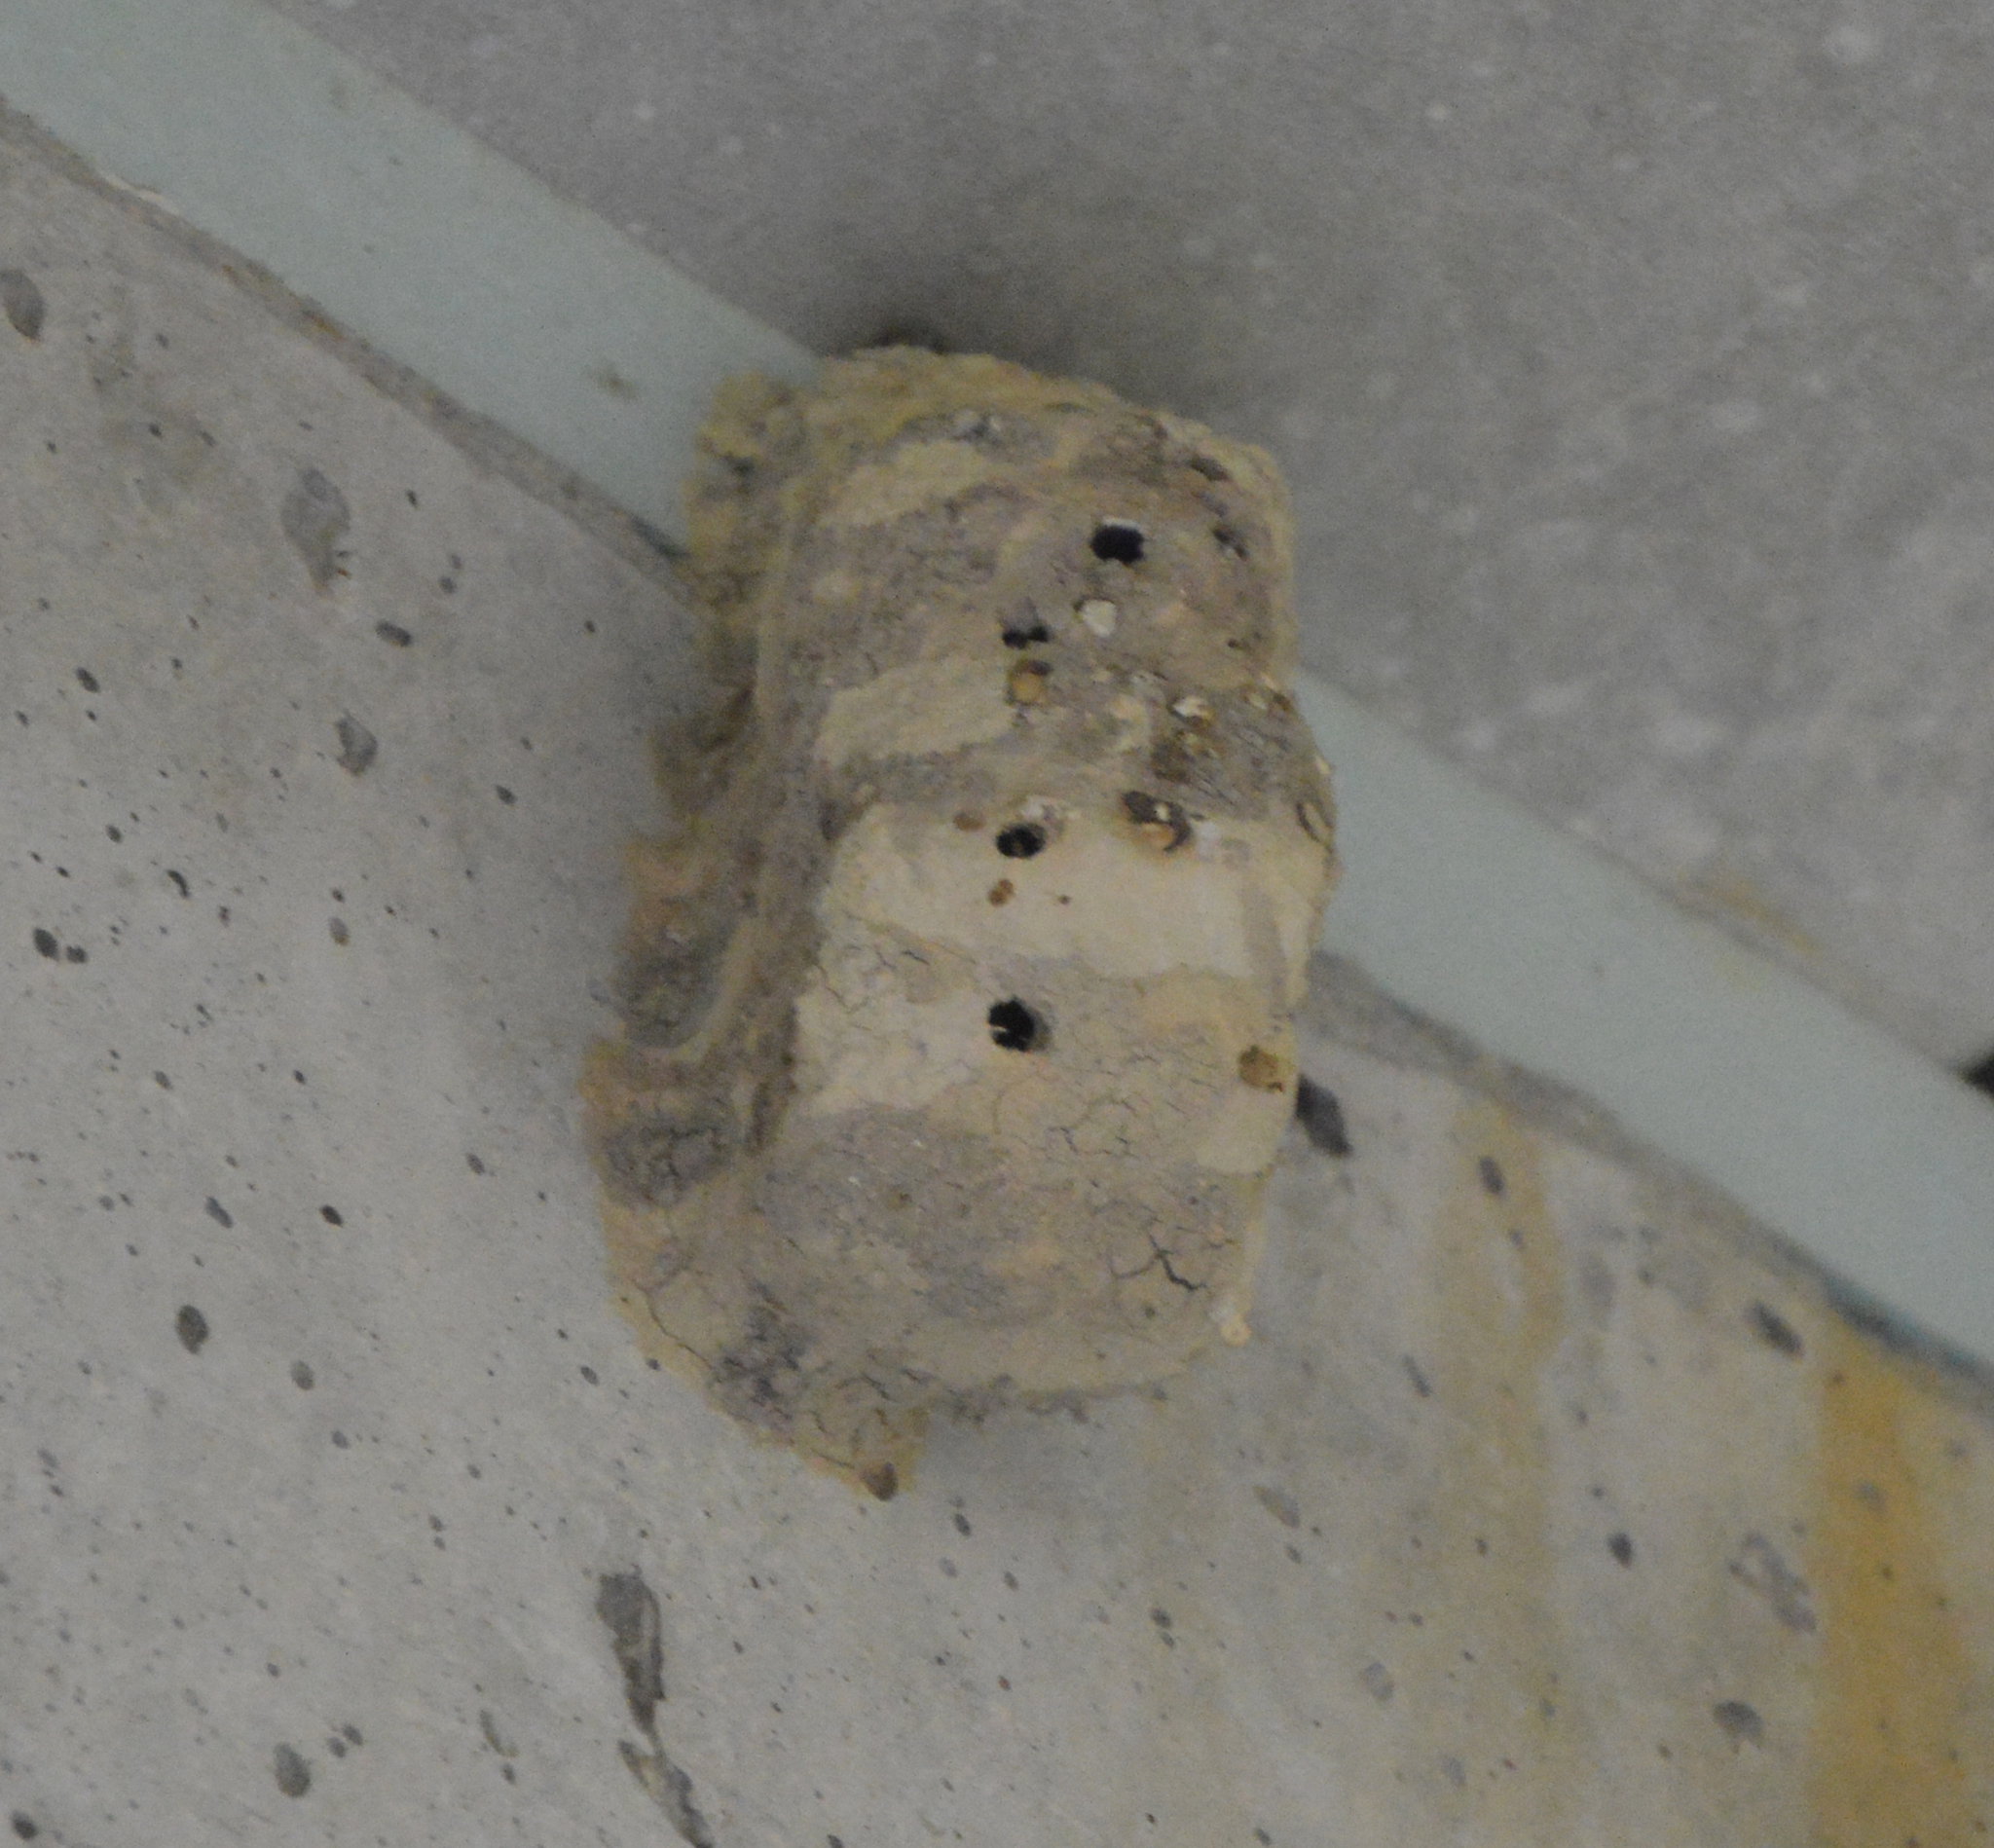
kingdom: Animalia
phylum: Arthropoda
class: Insecta
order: Hymenoptera
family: Sphecidae
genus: Sceliphron
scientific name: Sceliphron caementarium
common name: Mud dauber
